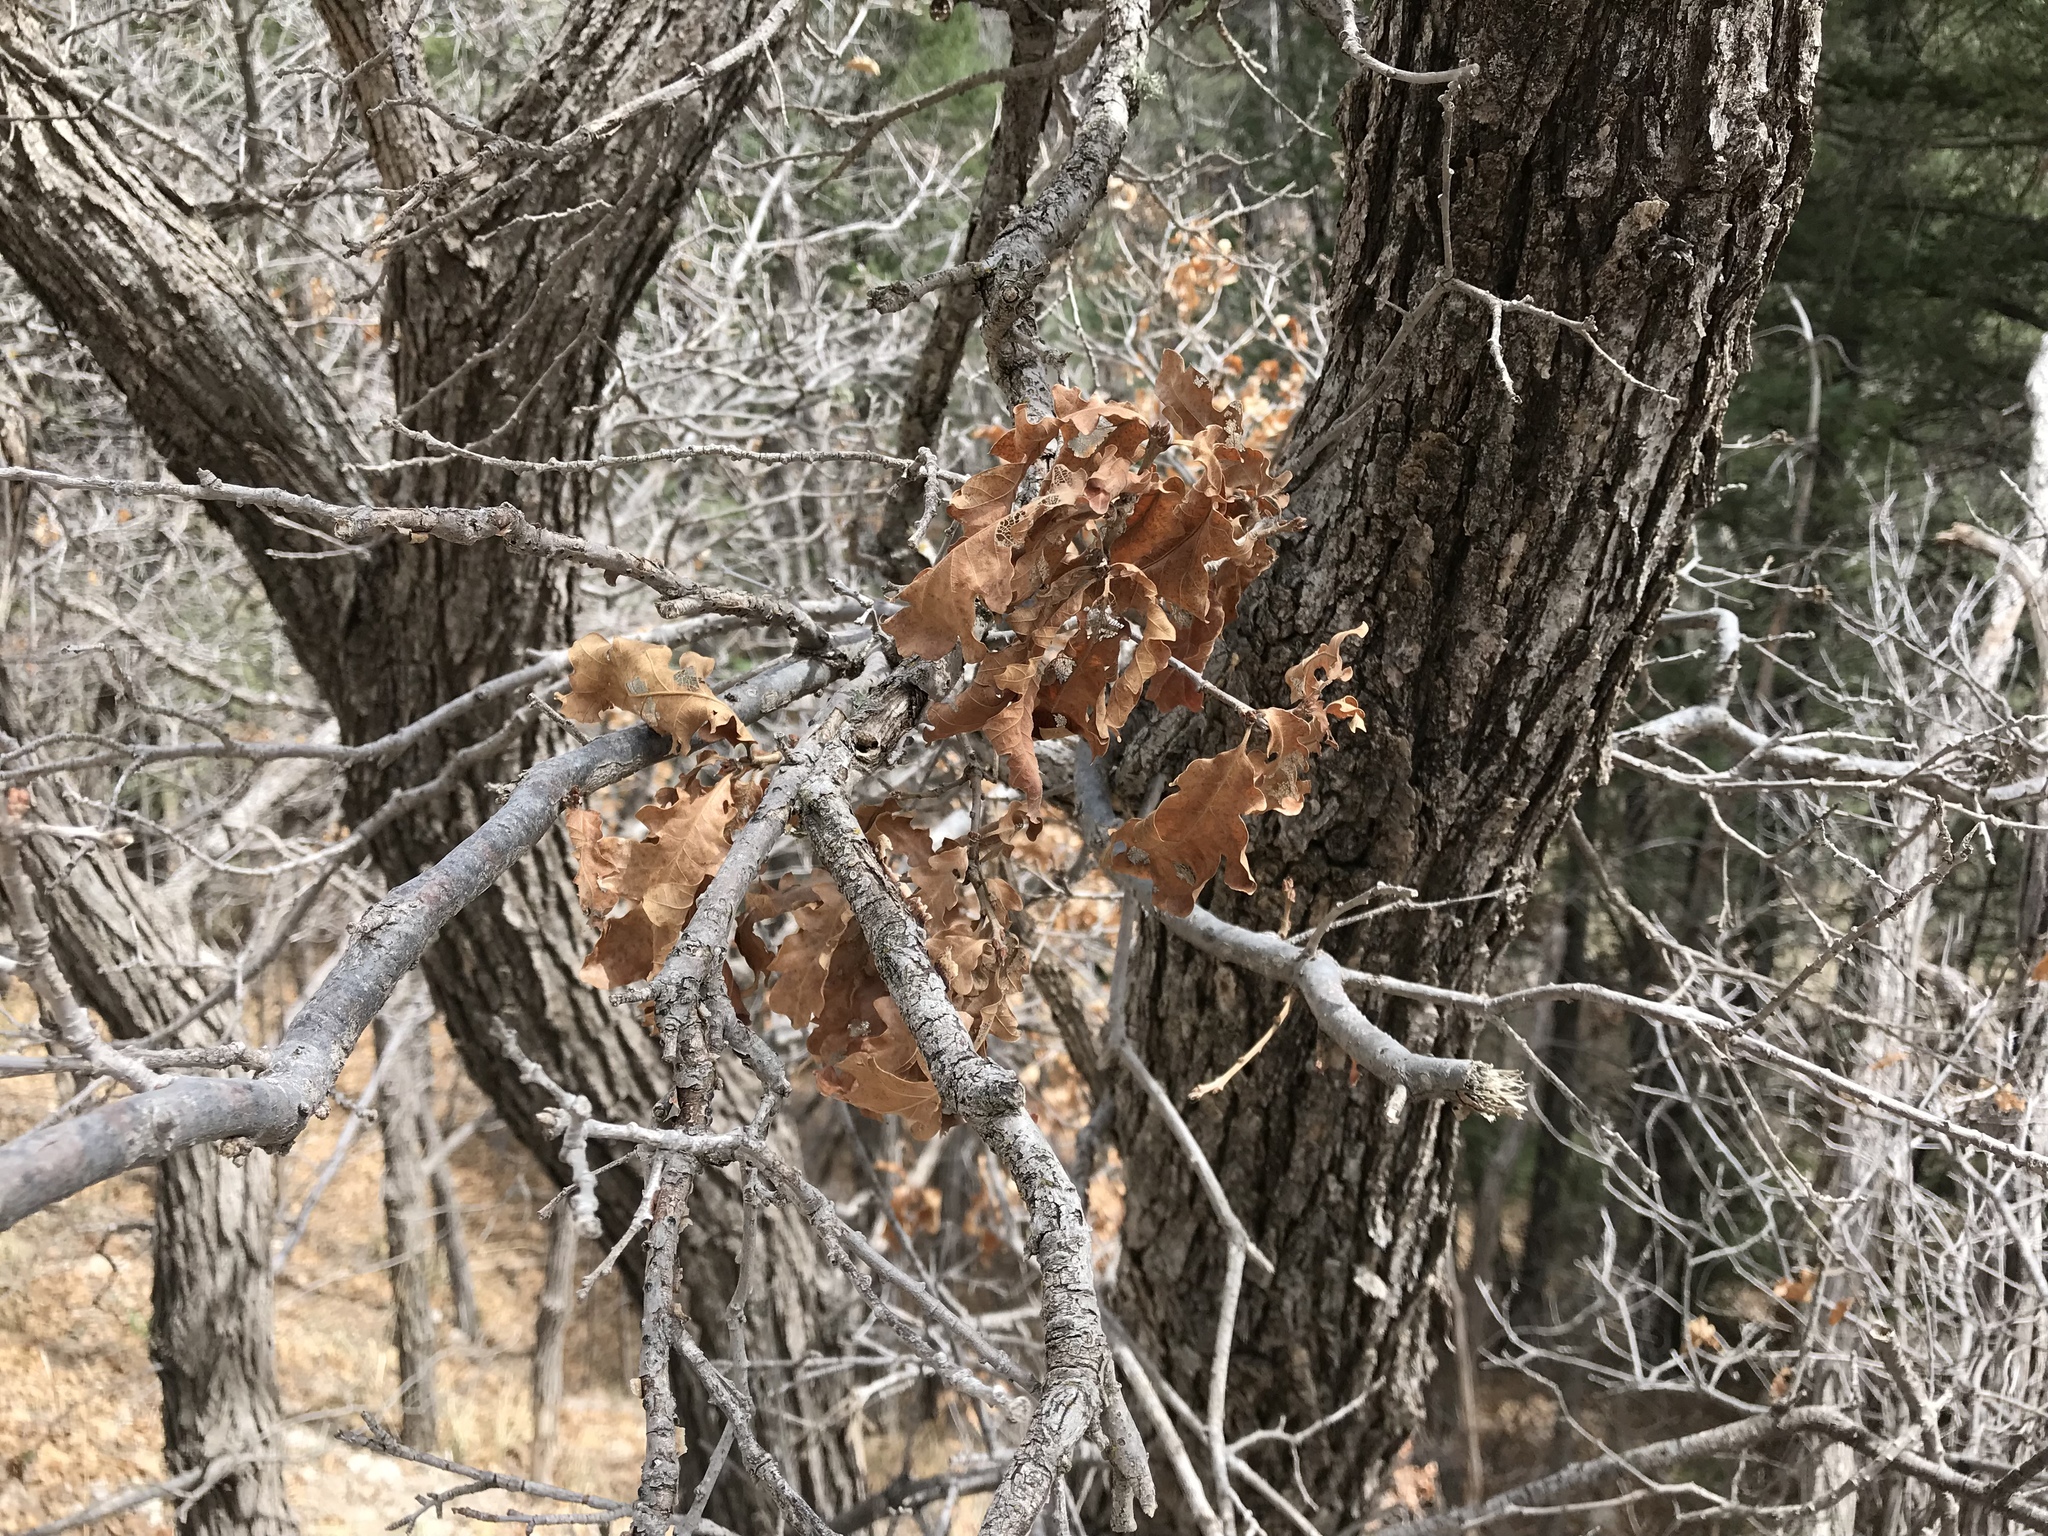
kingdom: Plantae
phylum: Tracheophyta
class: Magnoliopsida
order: Fagales
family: Fagaceae
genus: Quercus
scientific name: Quercus gambelii
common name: Gambel oak
